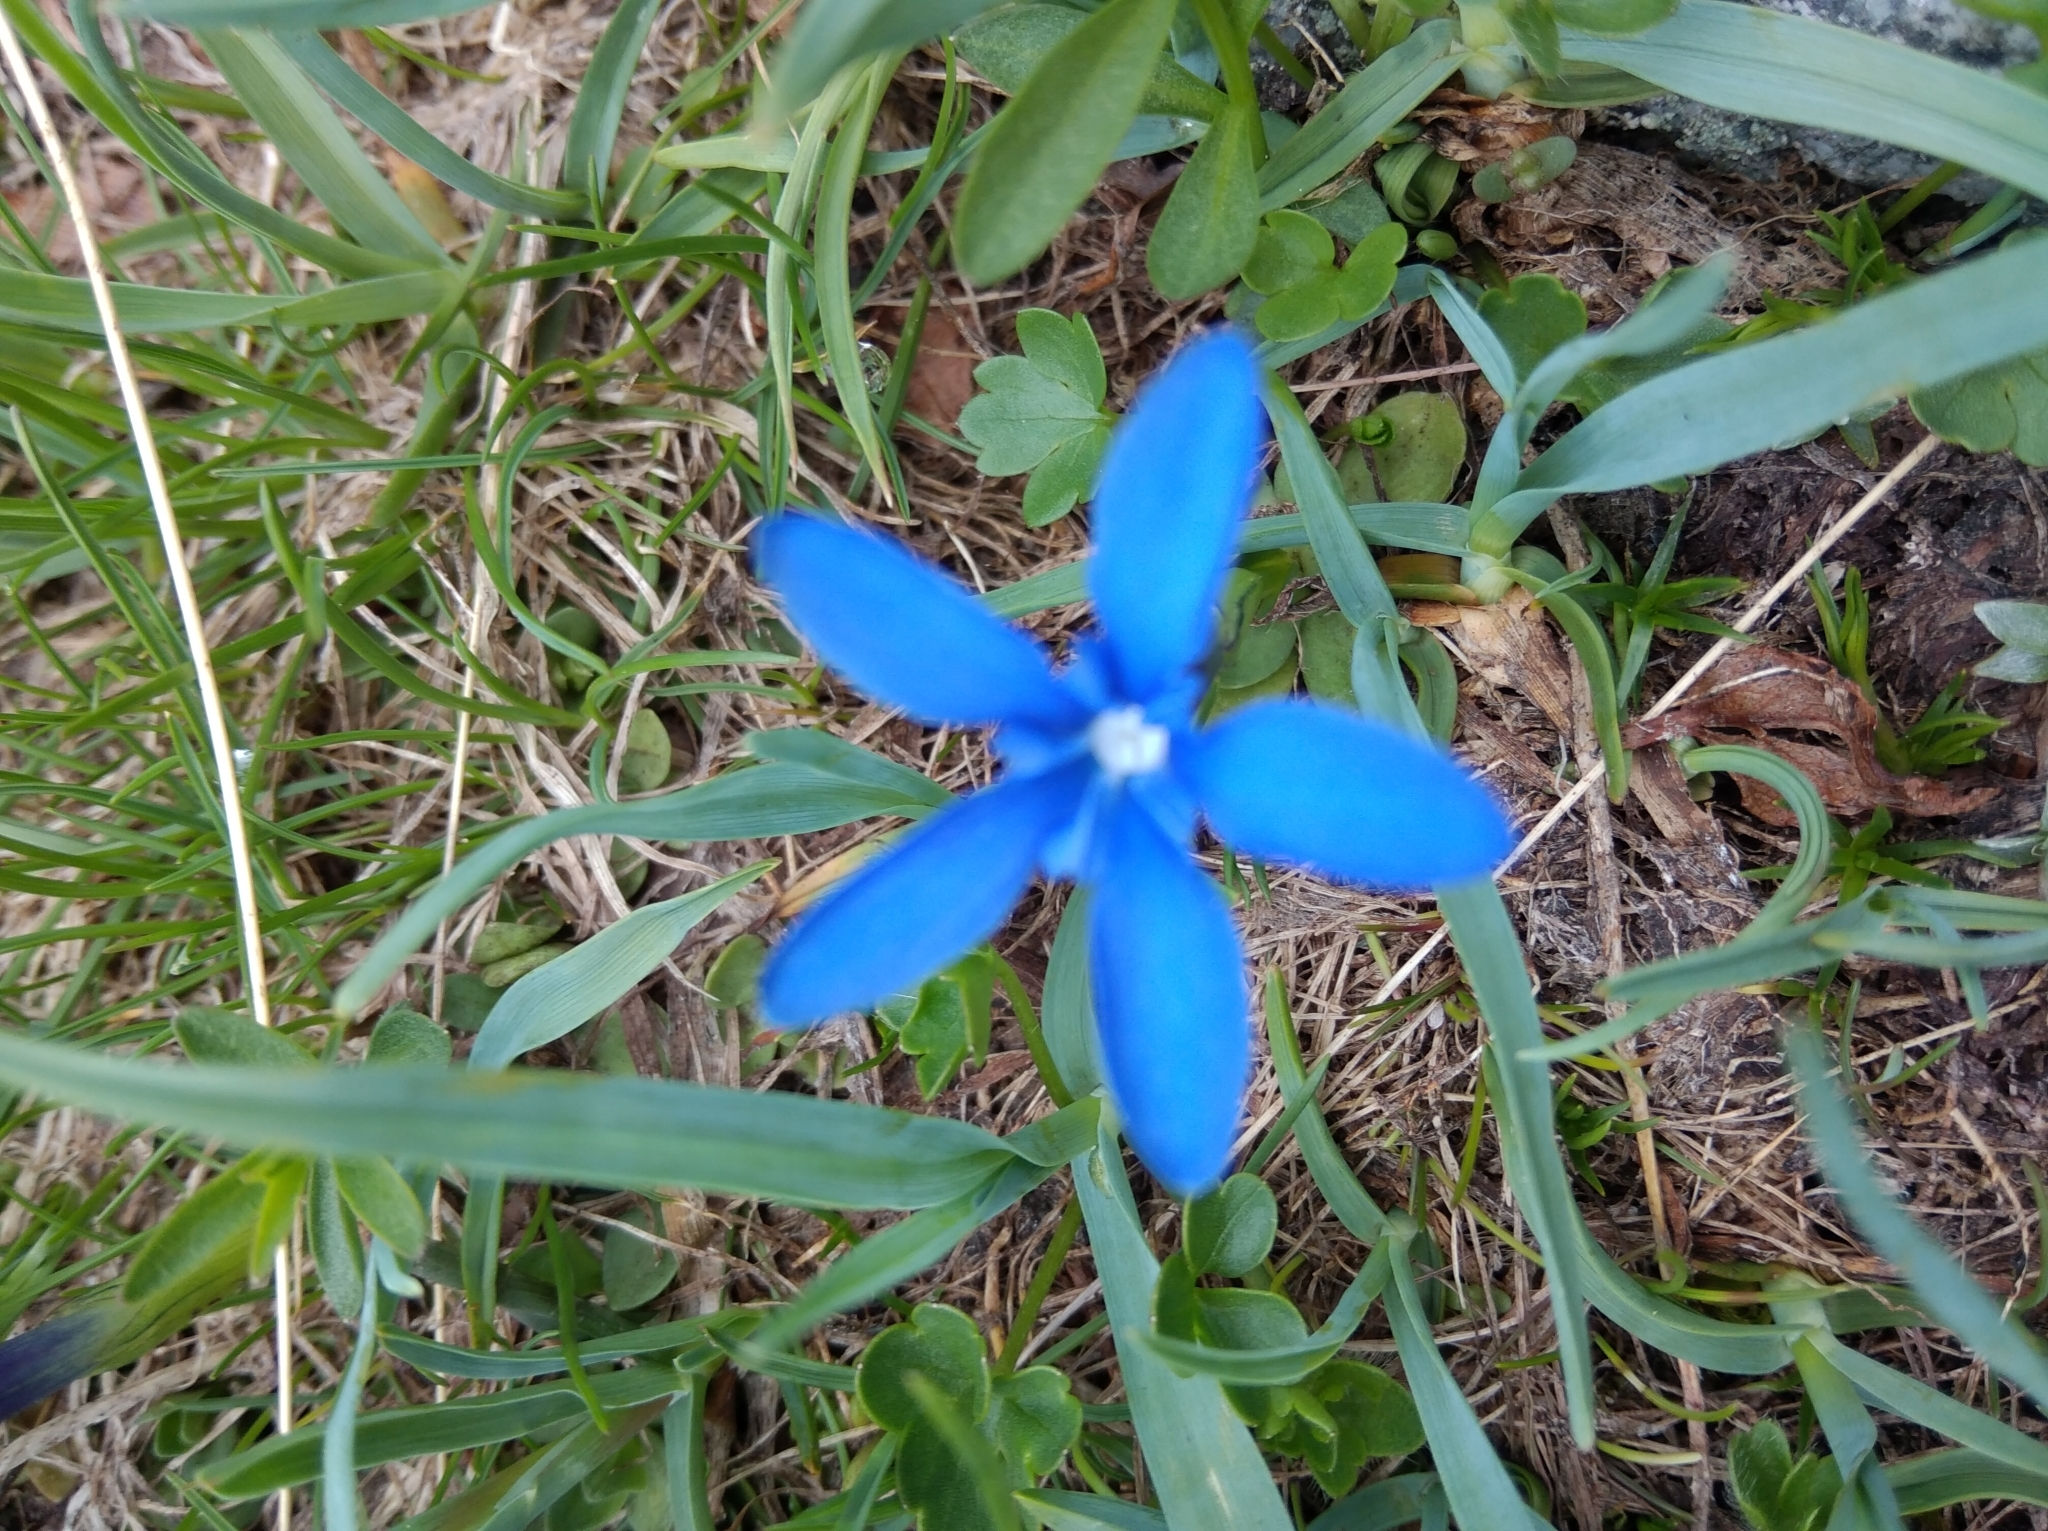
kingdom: Plantae
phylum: Tracheophyta
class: Magnoliopsida
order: Gentianales
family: Gentianaceae
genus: Gentiana
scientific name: Gentiana brachyphylla
